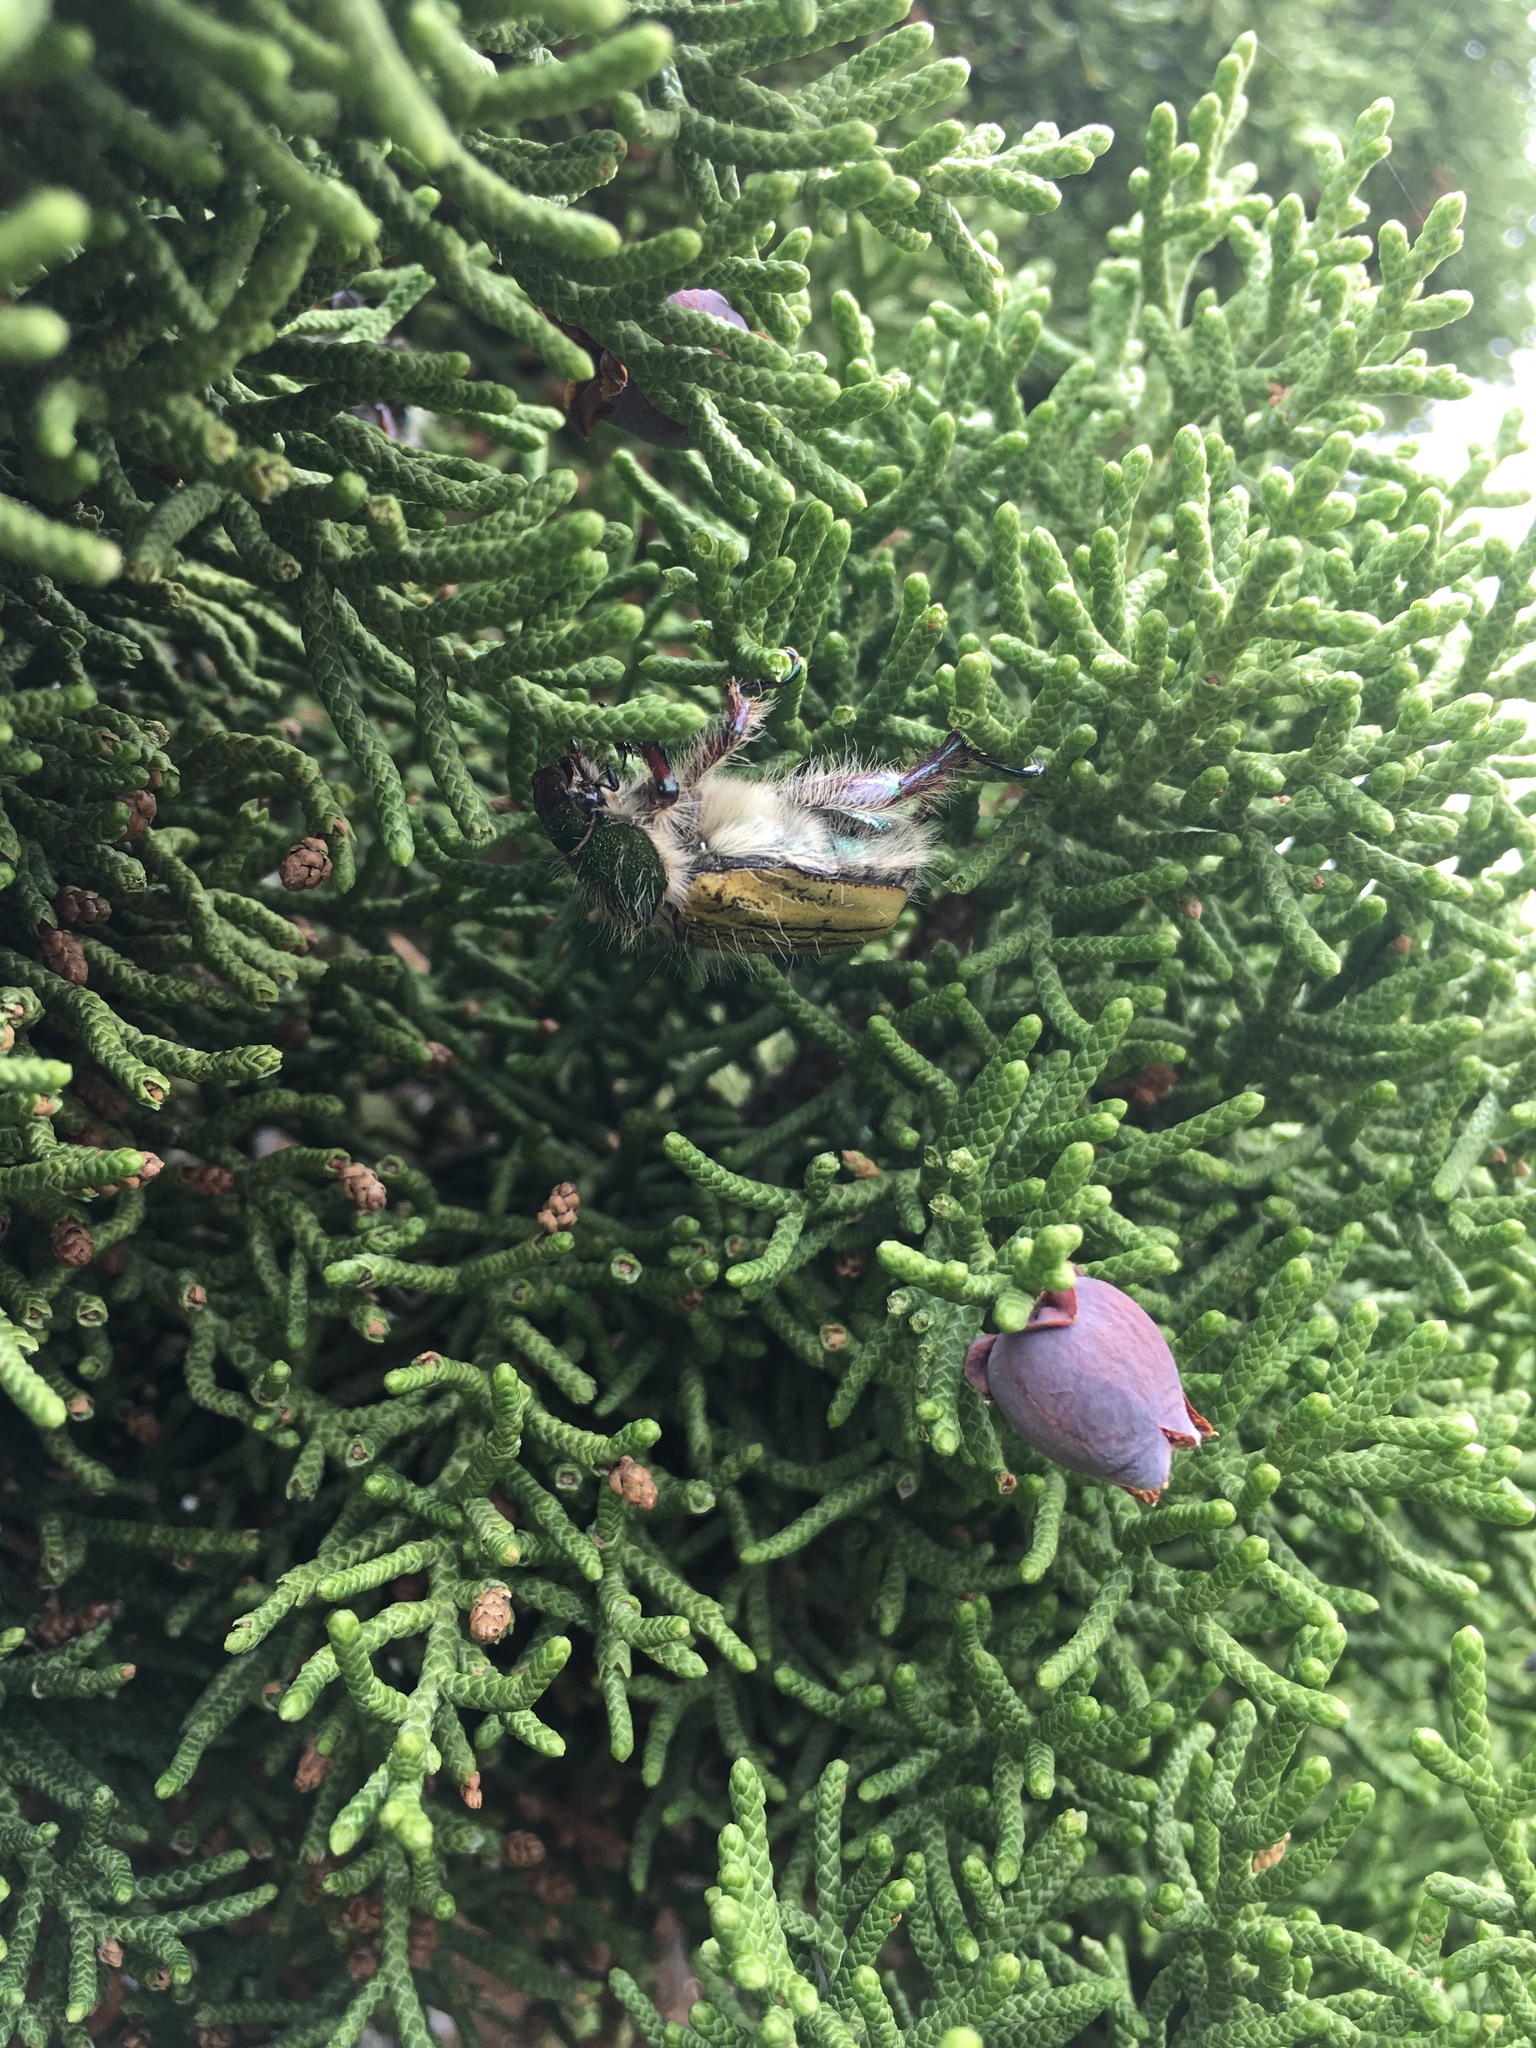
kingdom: Animalia
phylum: Arthropoda
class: Insecta
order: Coleoptera
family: Scarabaeidae
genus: Paracotalpa
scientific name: Paracotalpa puncticollis
